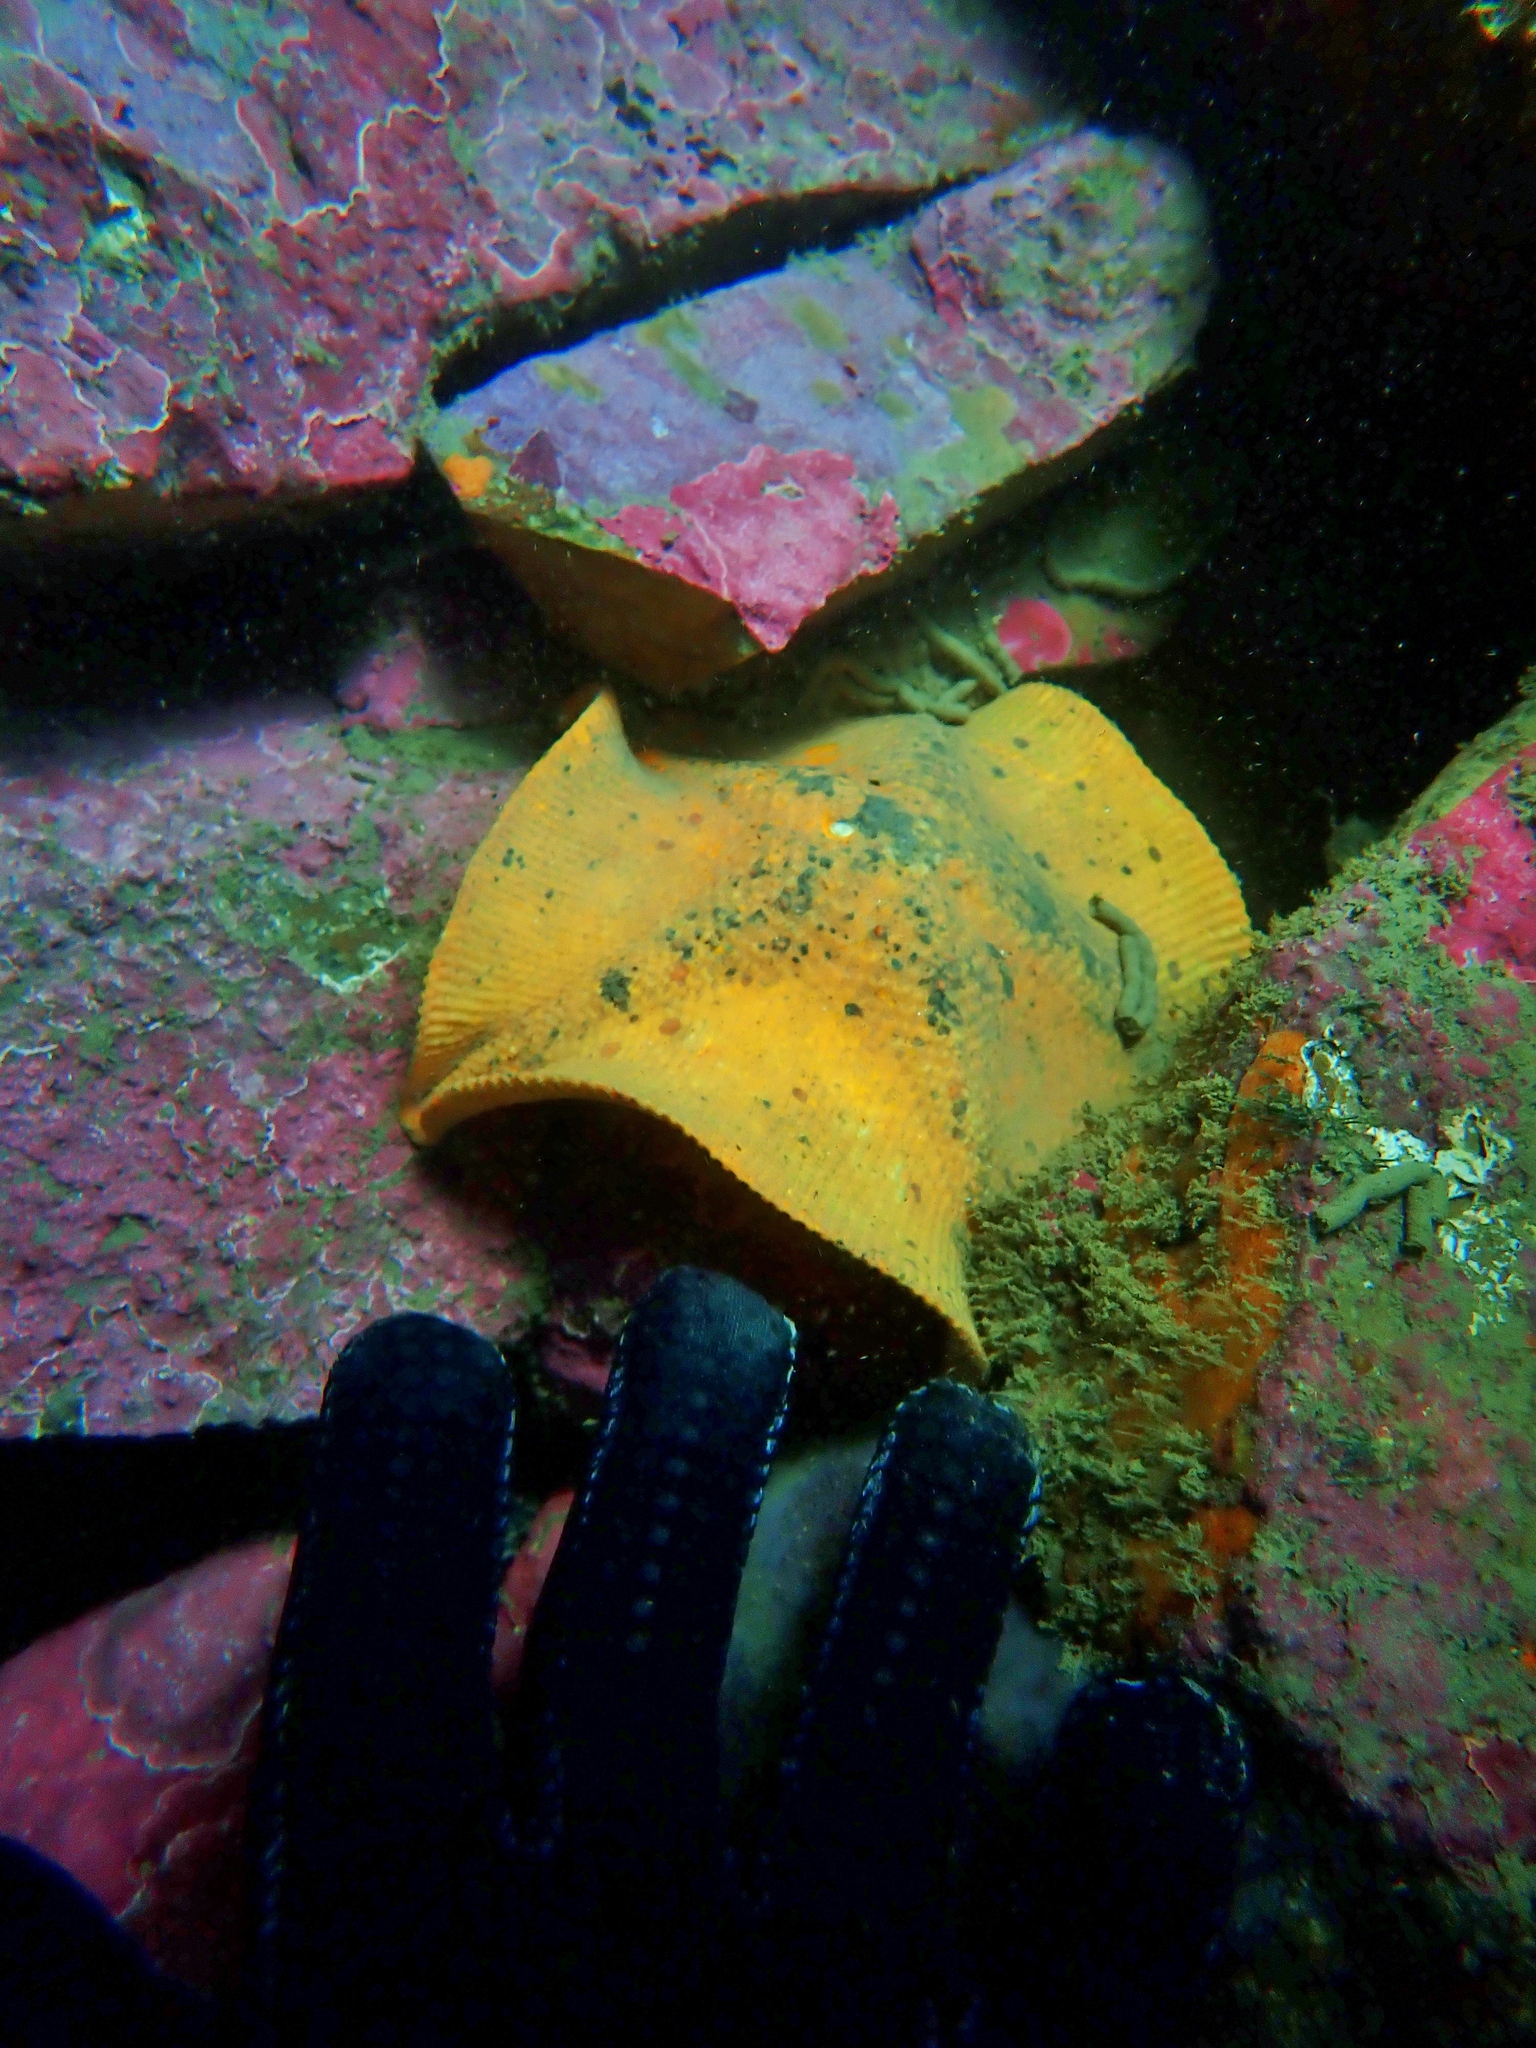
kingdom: Animalia
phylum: Echinodermata
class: Asteroidea
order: Valvatida
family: Asterinidae
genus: Stegnaster
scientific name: Stegnaster inflatus
